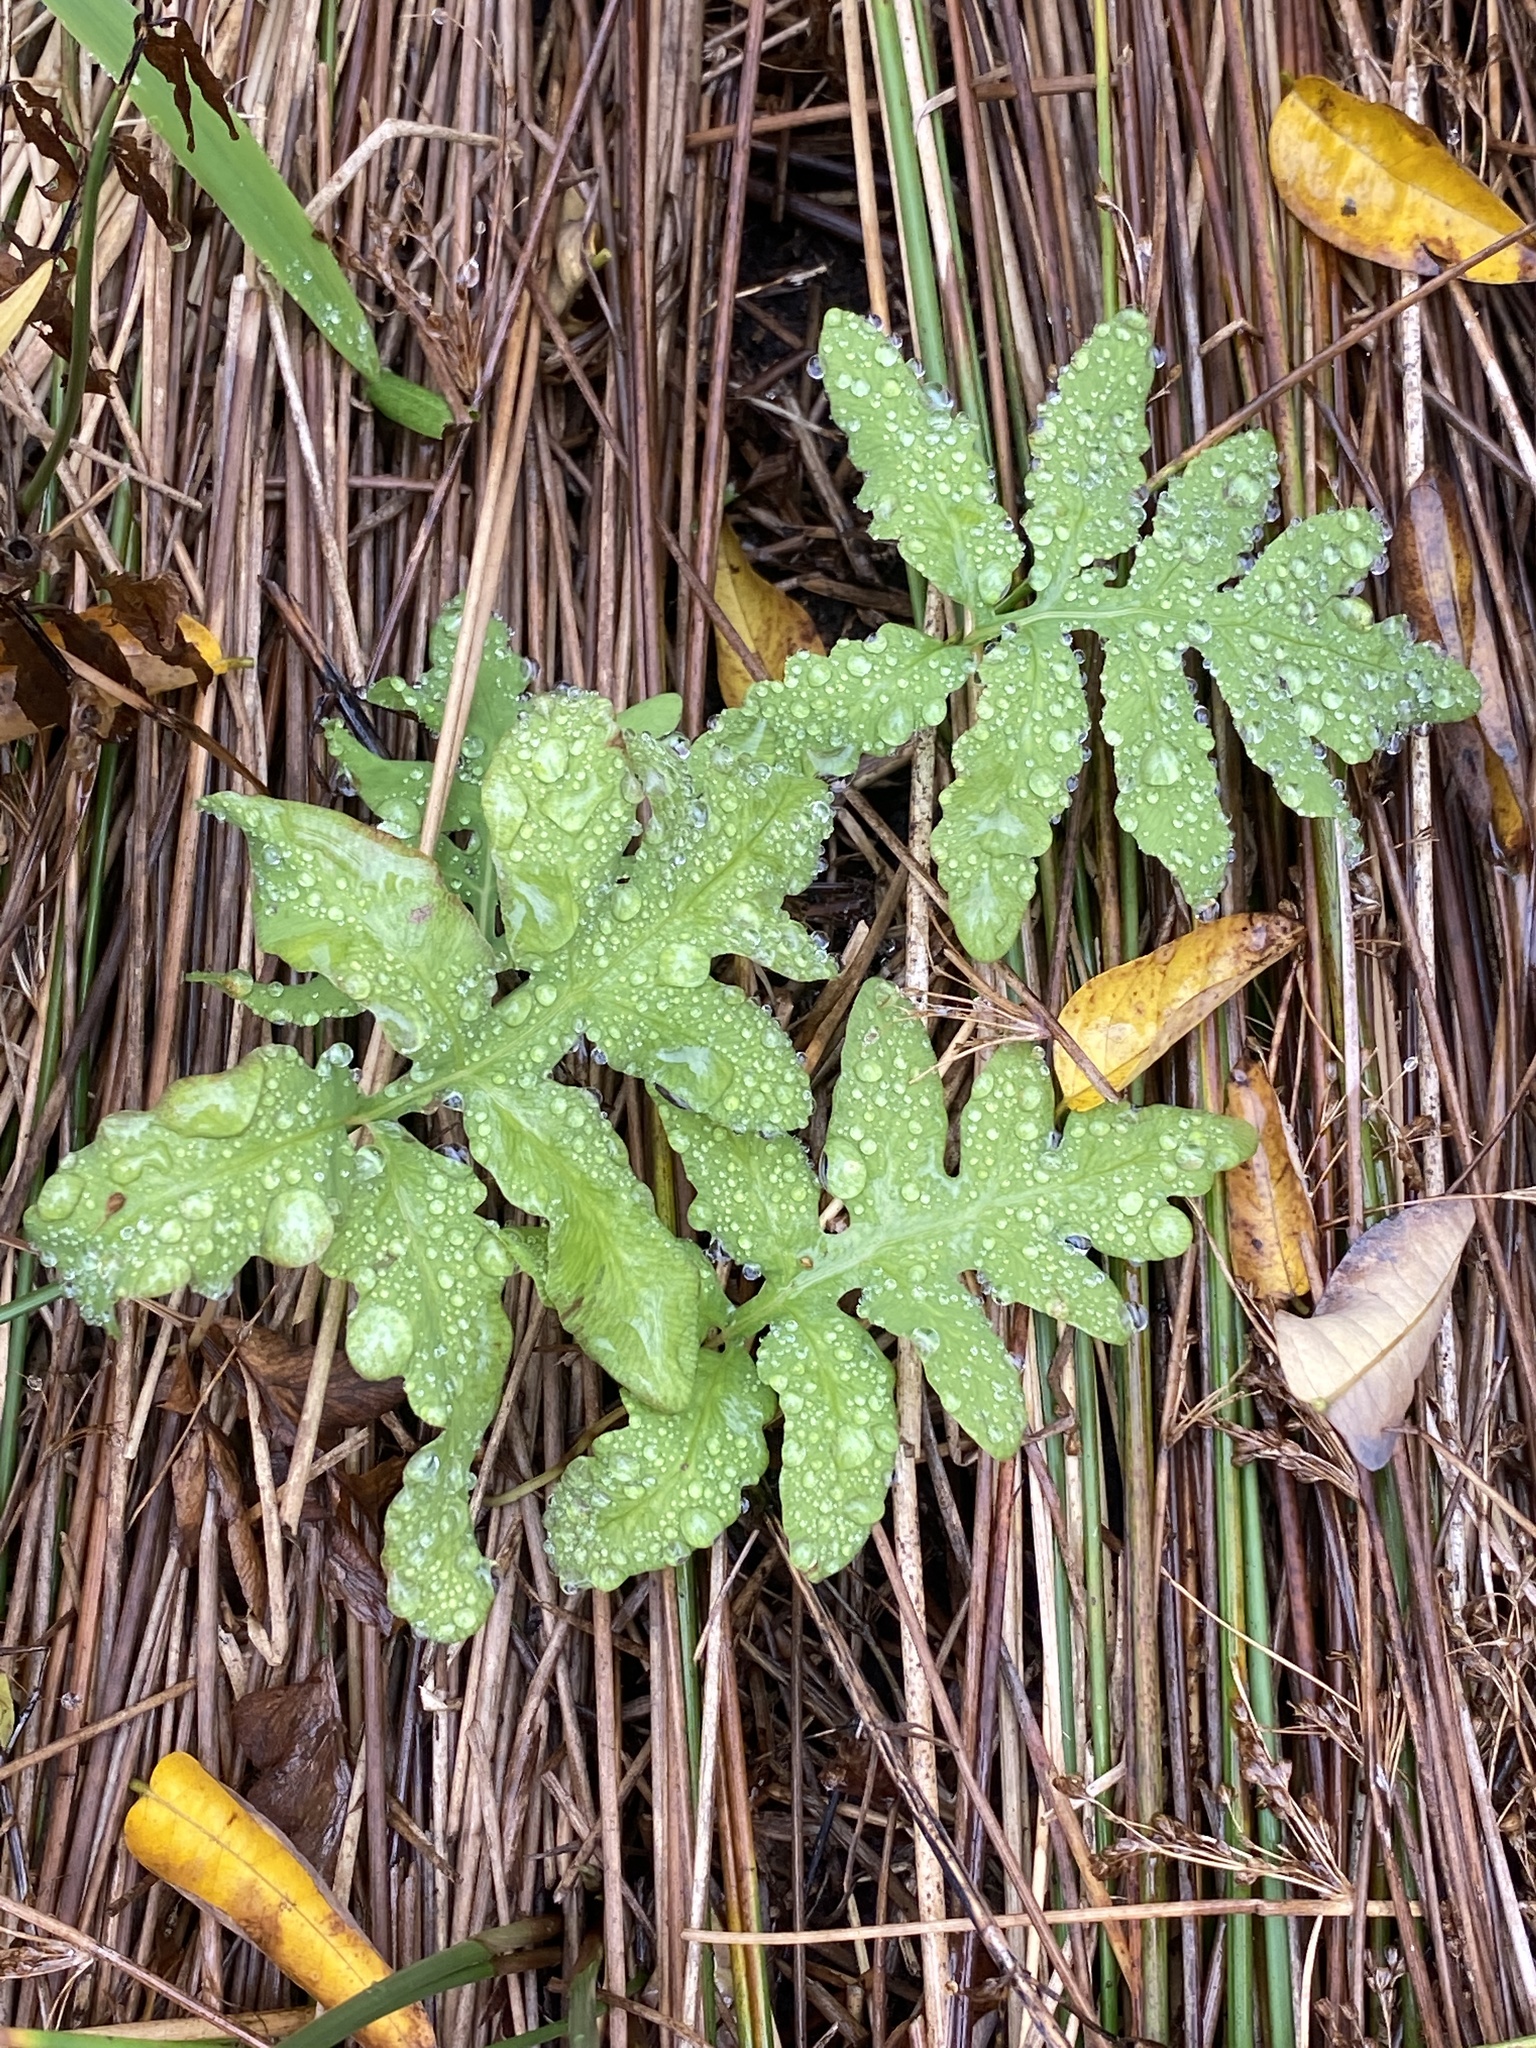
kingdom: Plantae
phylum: Tracheophyta
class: Polypodiopsida
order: Polypodiales
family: Onocleaceae
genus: Onoclea
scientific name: Onoclea sensibilis
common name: Sensitive fern
